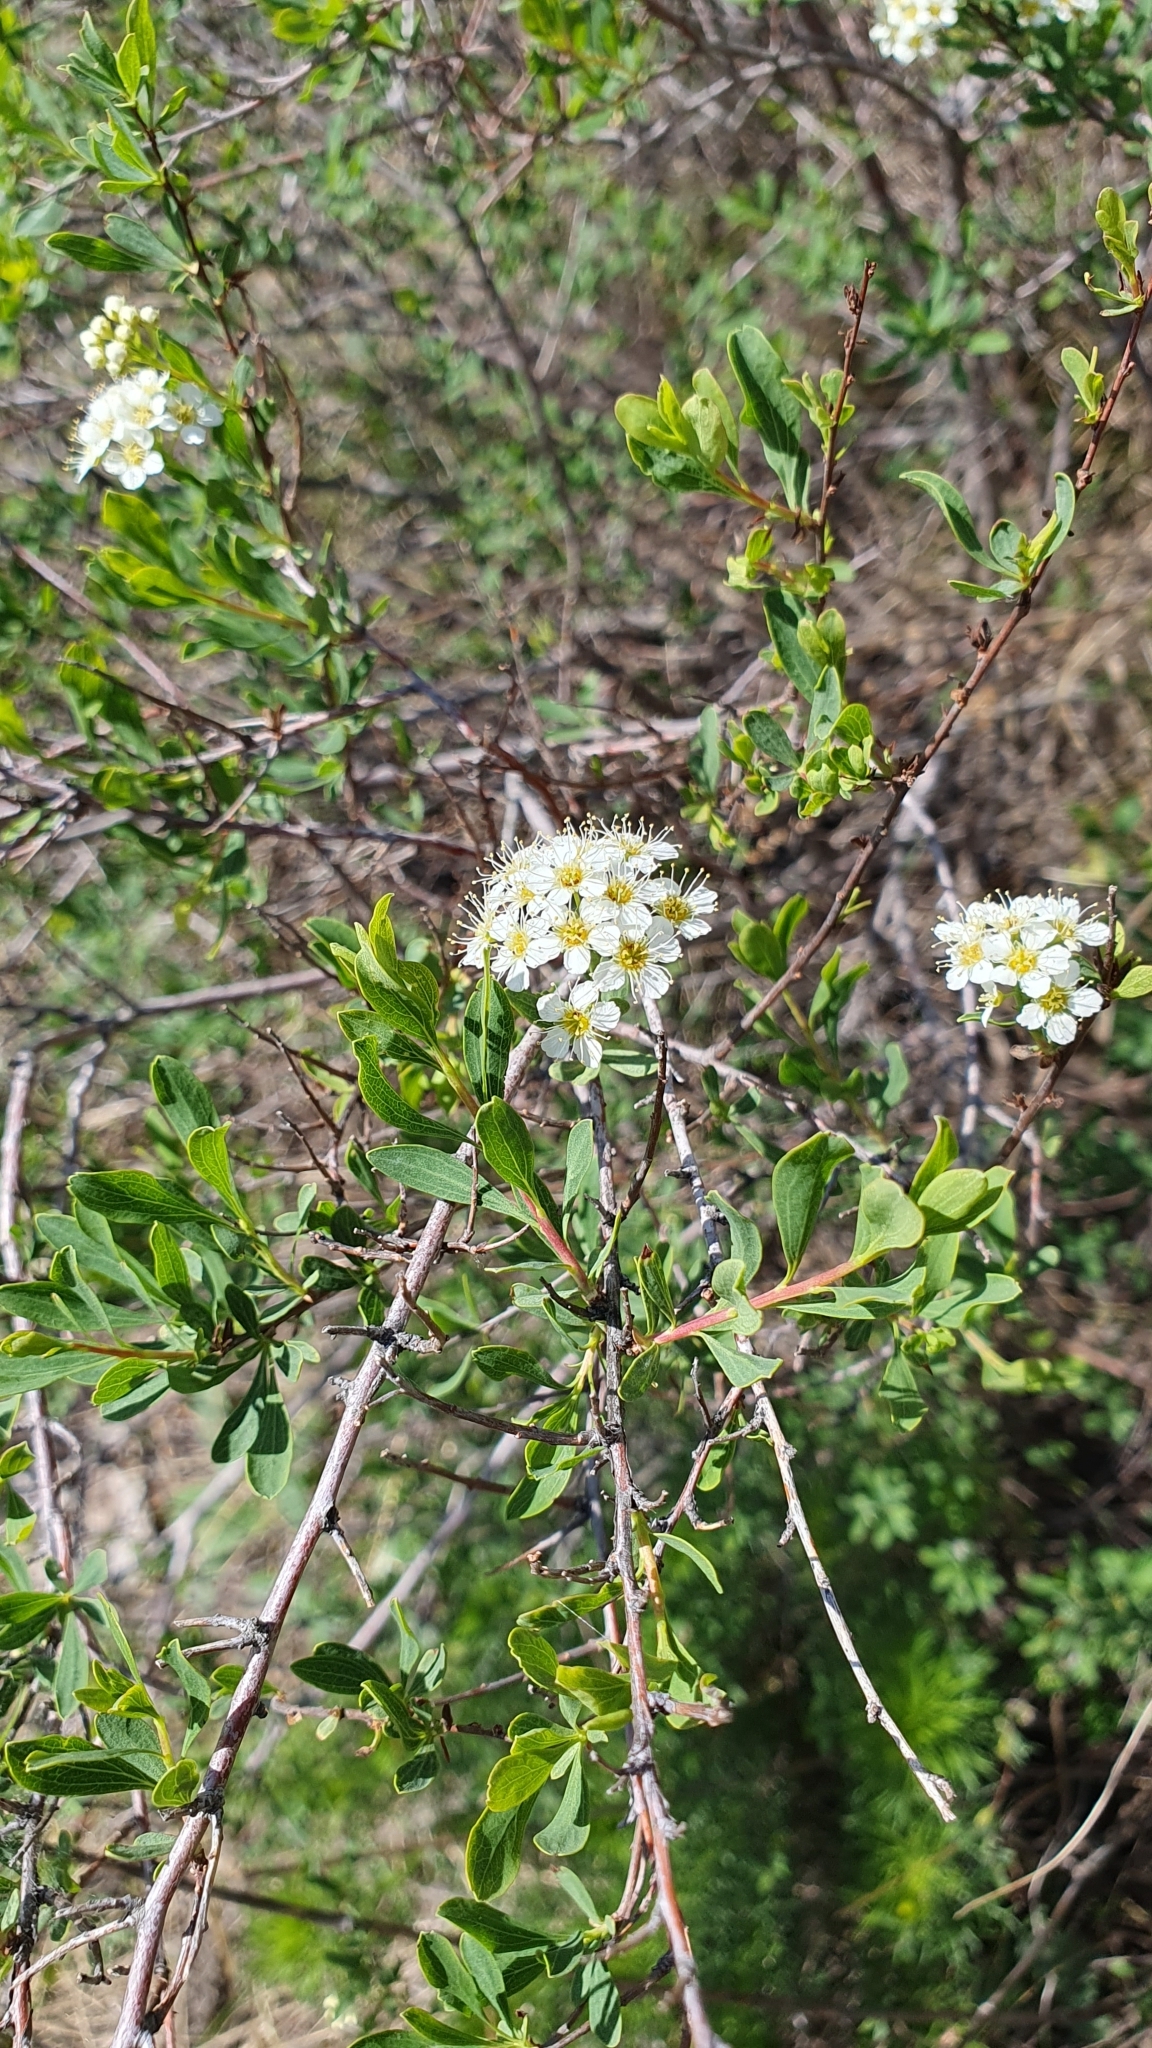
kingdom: Plantae
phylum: Tracheophyta
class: Magnoliopsida
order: Rosales
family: Rosaceae
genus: Spiraea
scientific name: Spiraea crenata
